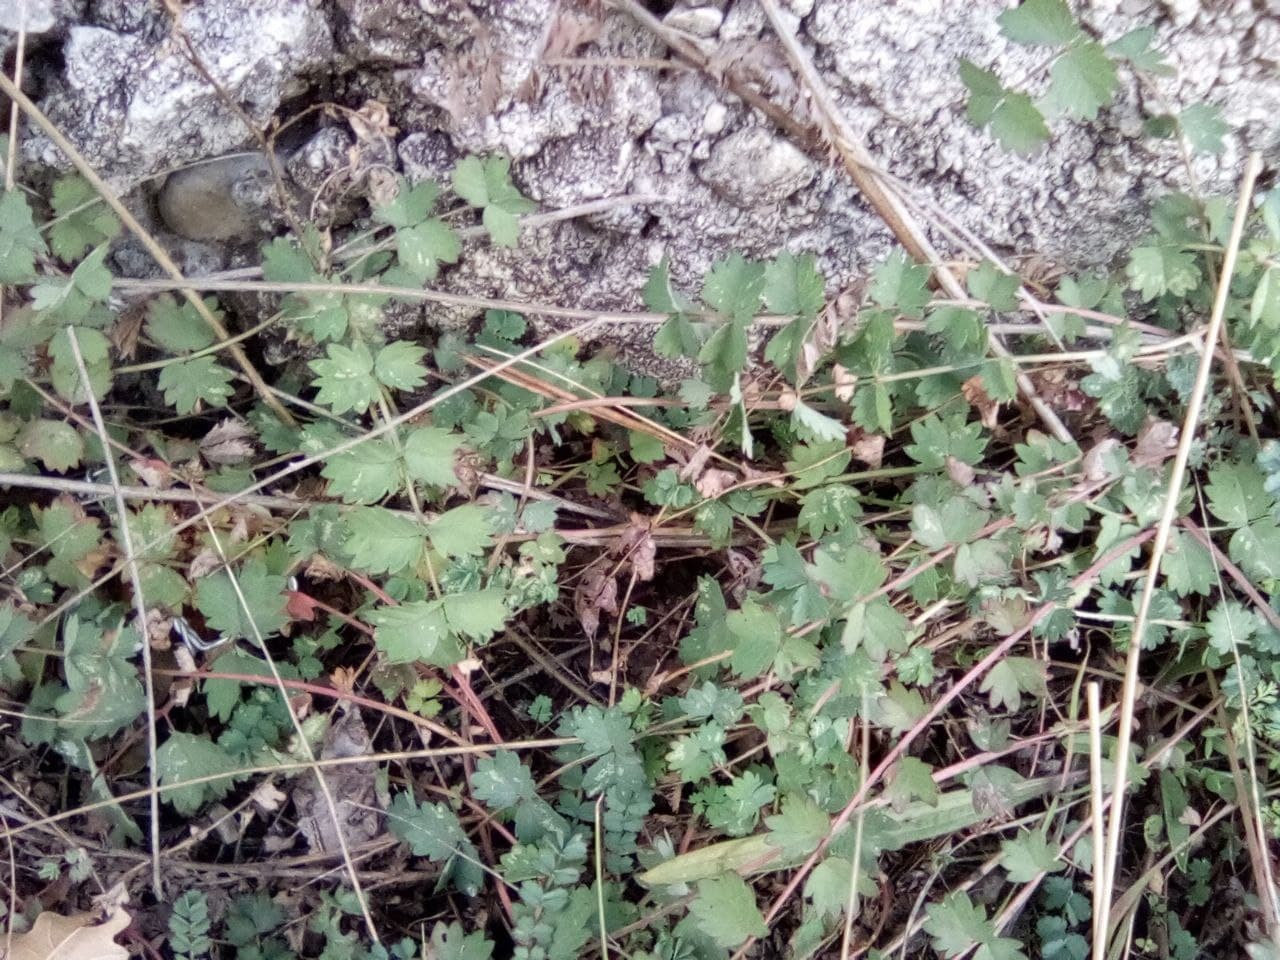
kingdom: Plantae
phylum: Tracheophyta
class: Magnoliopsida
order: Rosales
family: Rosaceae
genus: Poterium
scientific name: Poterium sanguisorba
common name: Salad burnet
